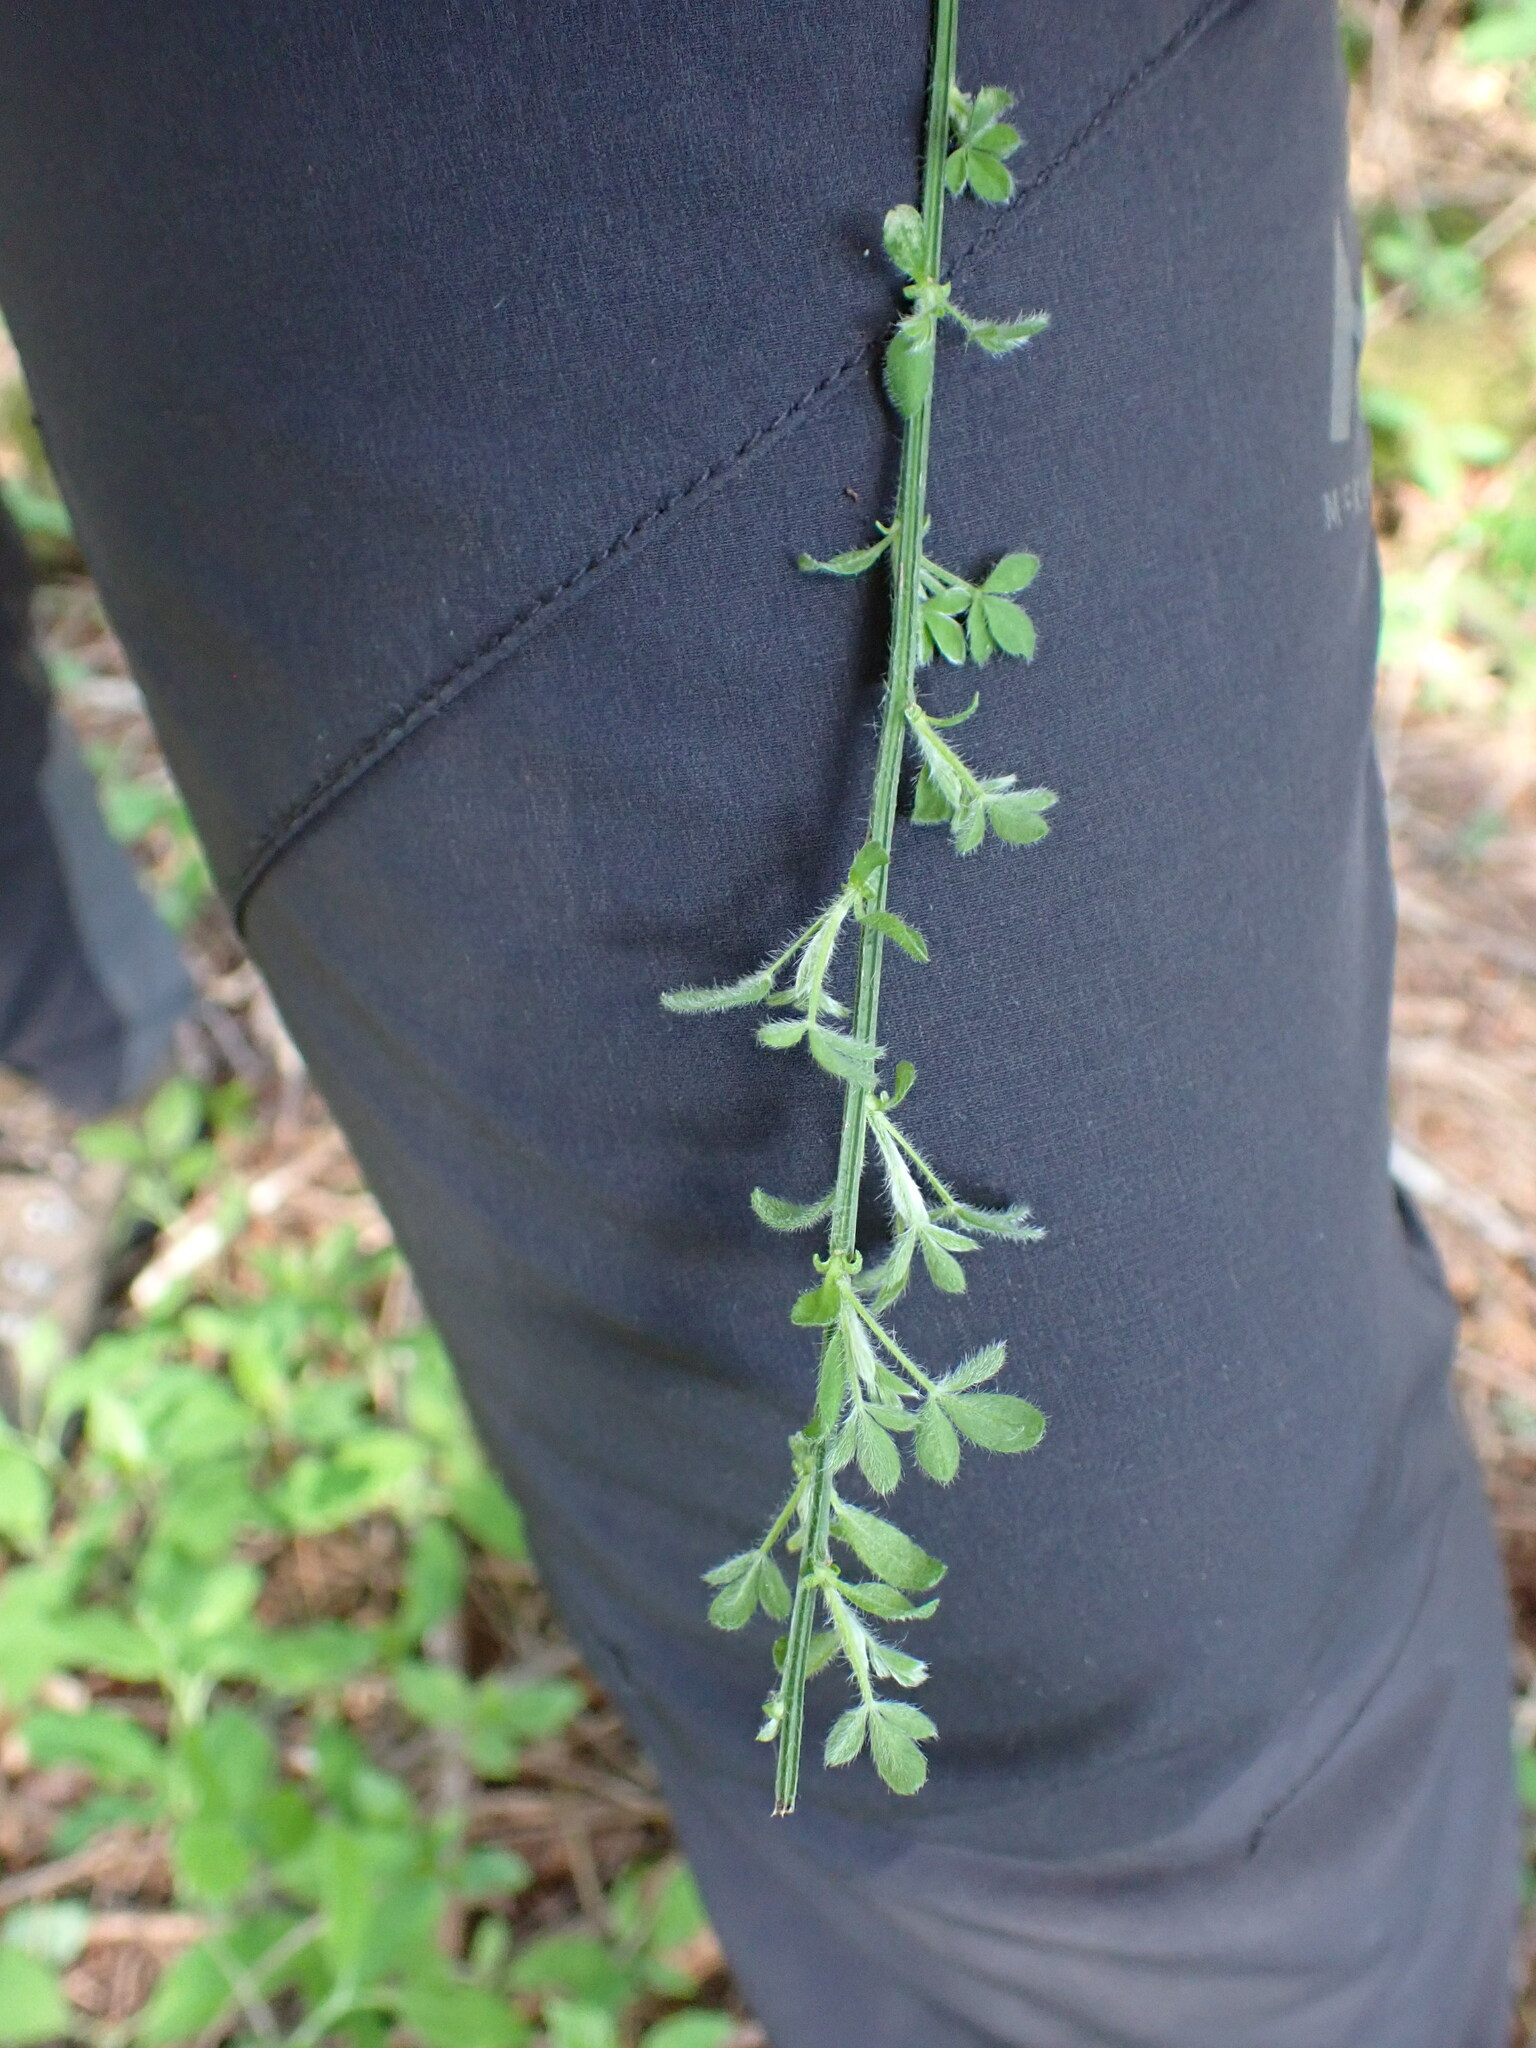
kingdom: Plantae
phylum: Tracheophyta
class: Magnoliopsida
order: Fabales
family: Fabaceae
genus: Cytisus
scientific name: Cytisus scoparius
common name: Scotch broom
